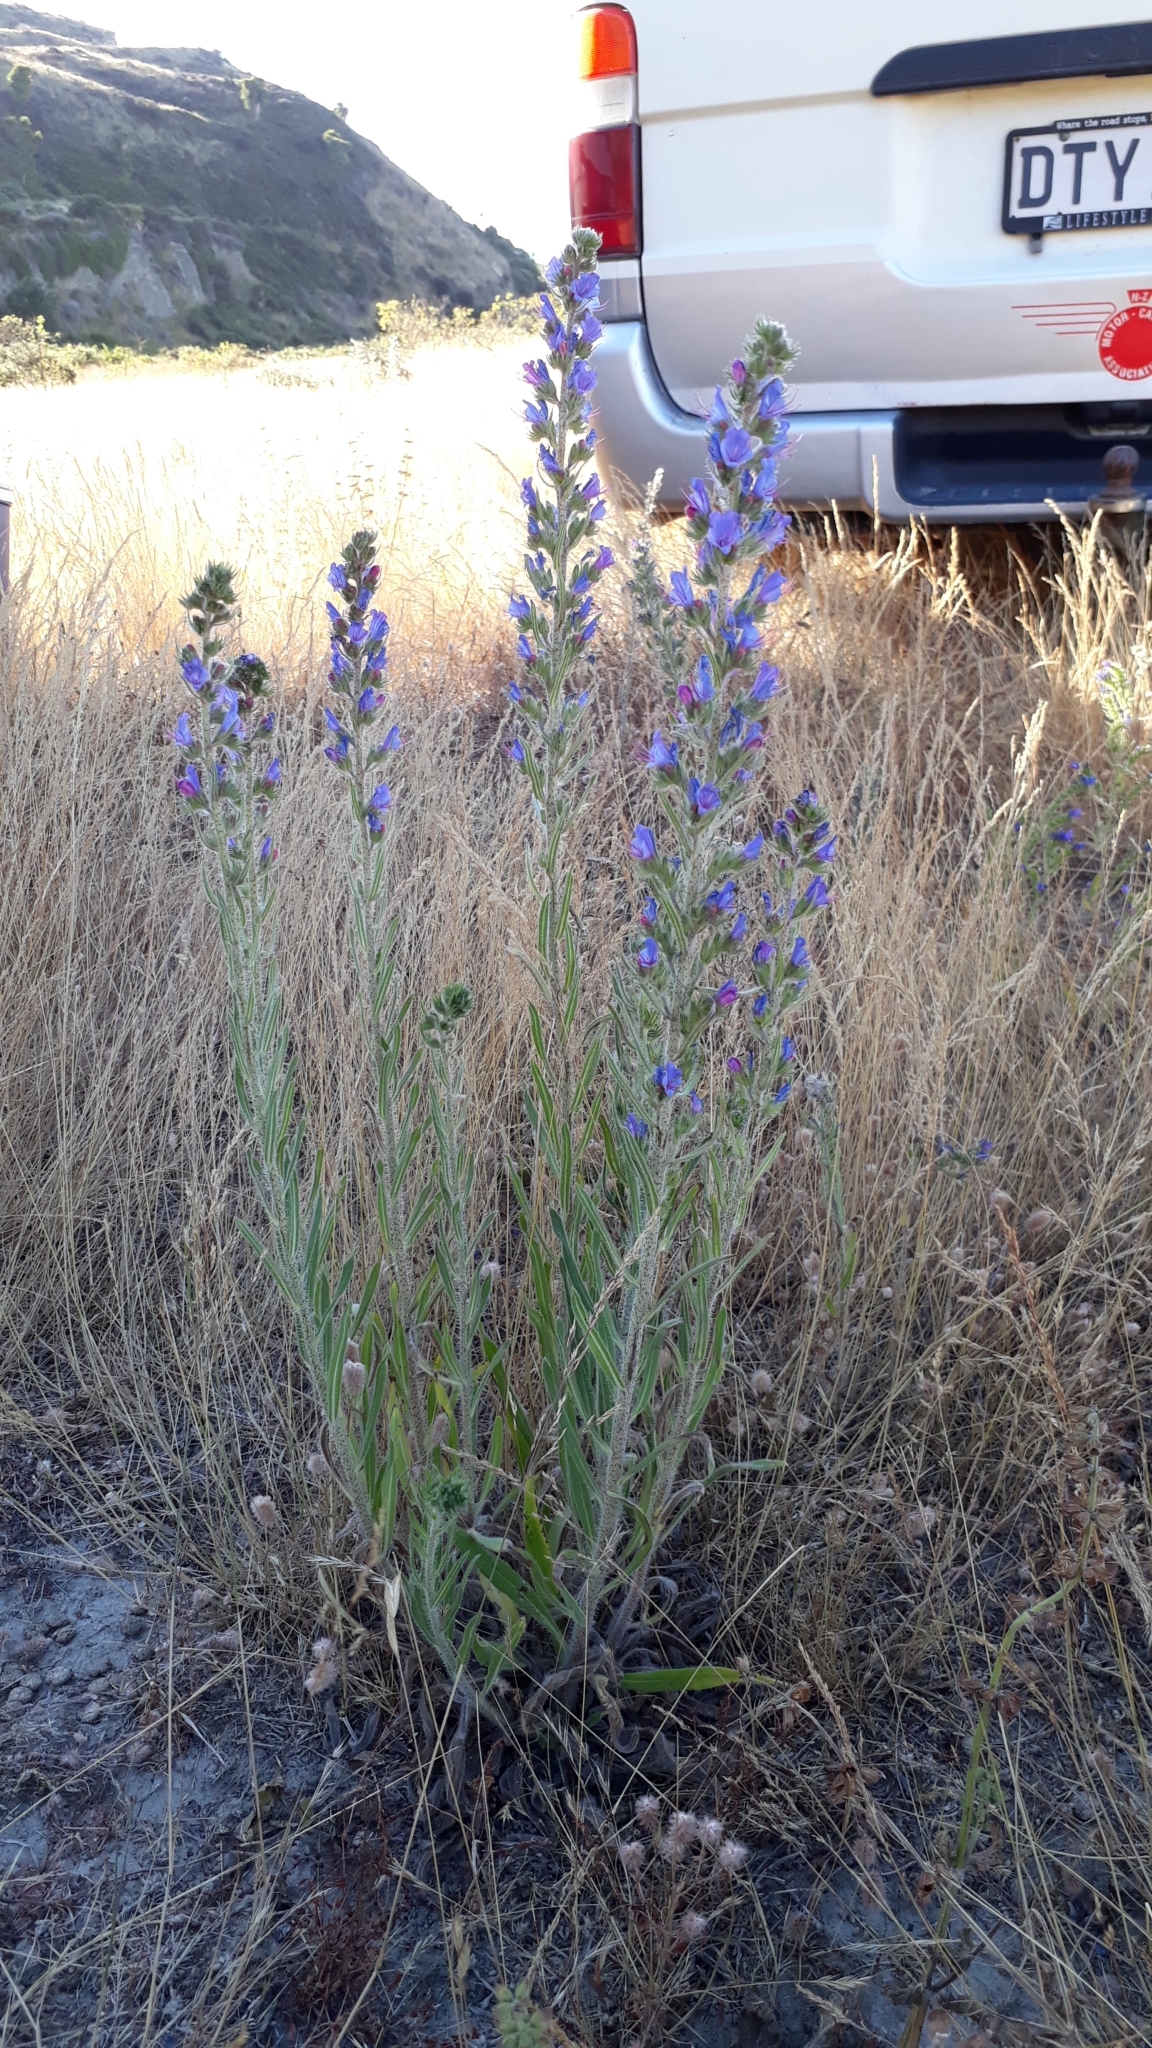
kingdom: Plantae
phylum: Tracheophyta
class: Magnoliopsida
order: Boraginales
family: Boraginaceae
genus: Echium
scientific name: Echium vulgare
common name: Common viper's bugloss
